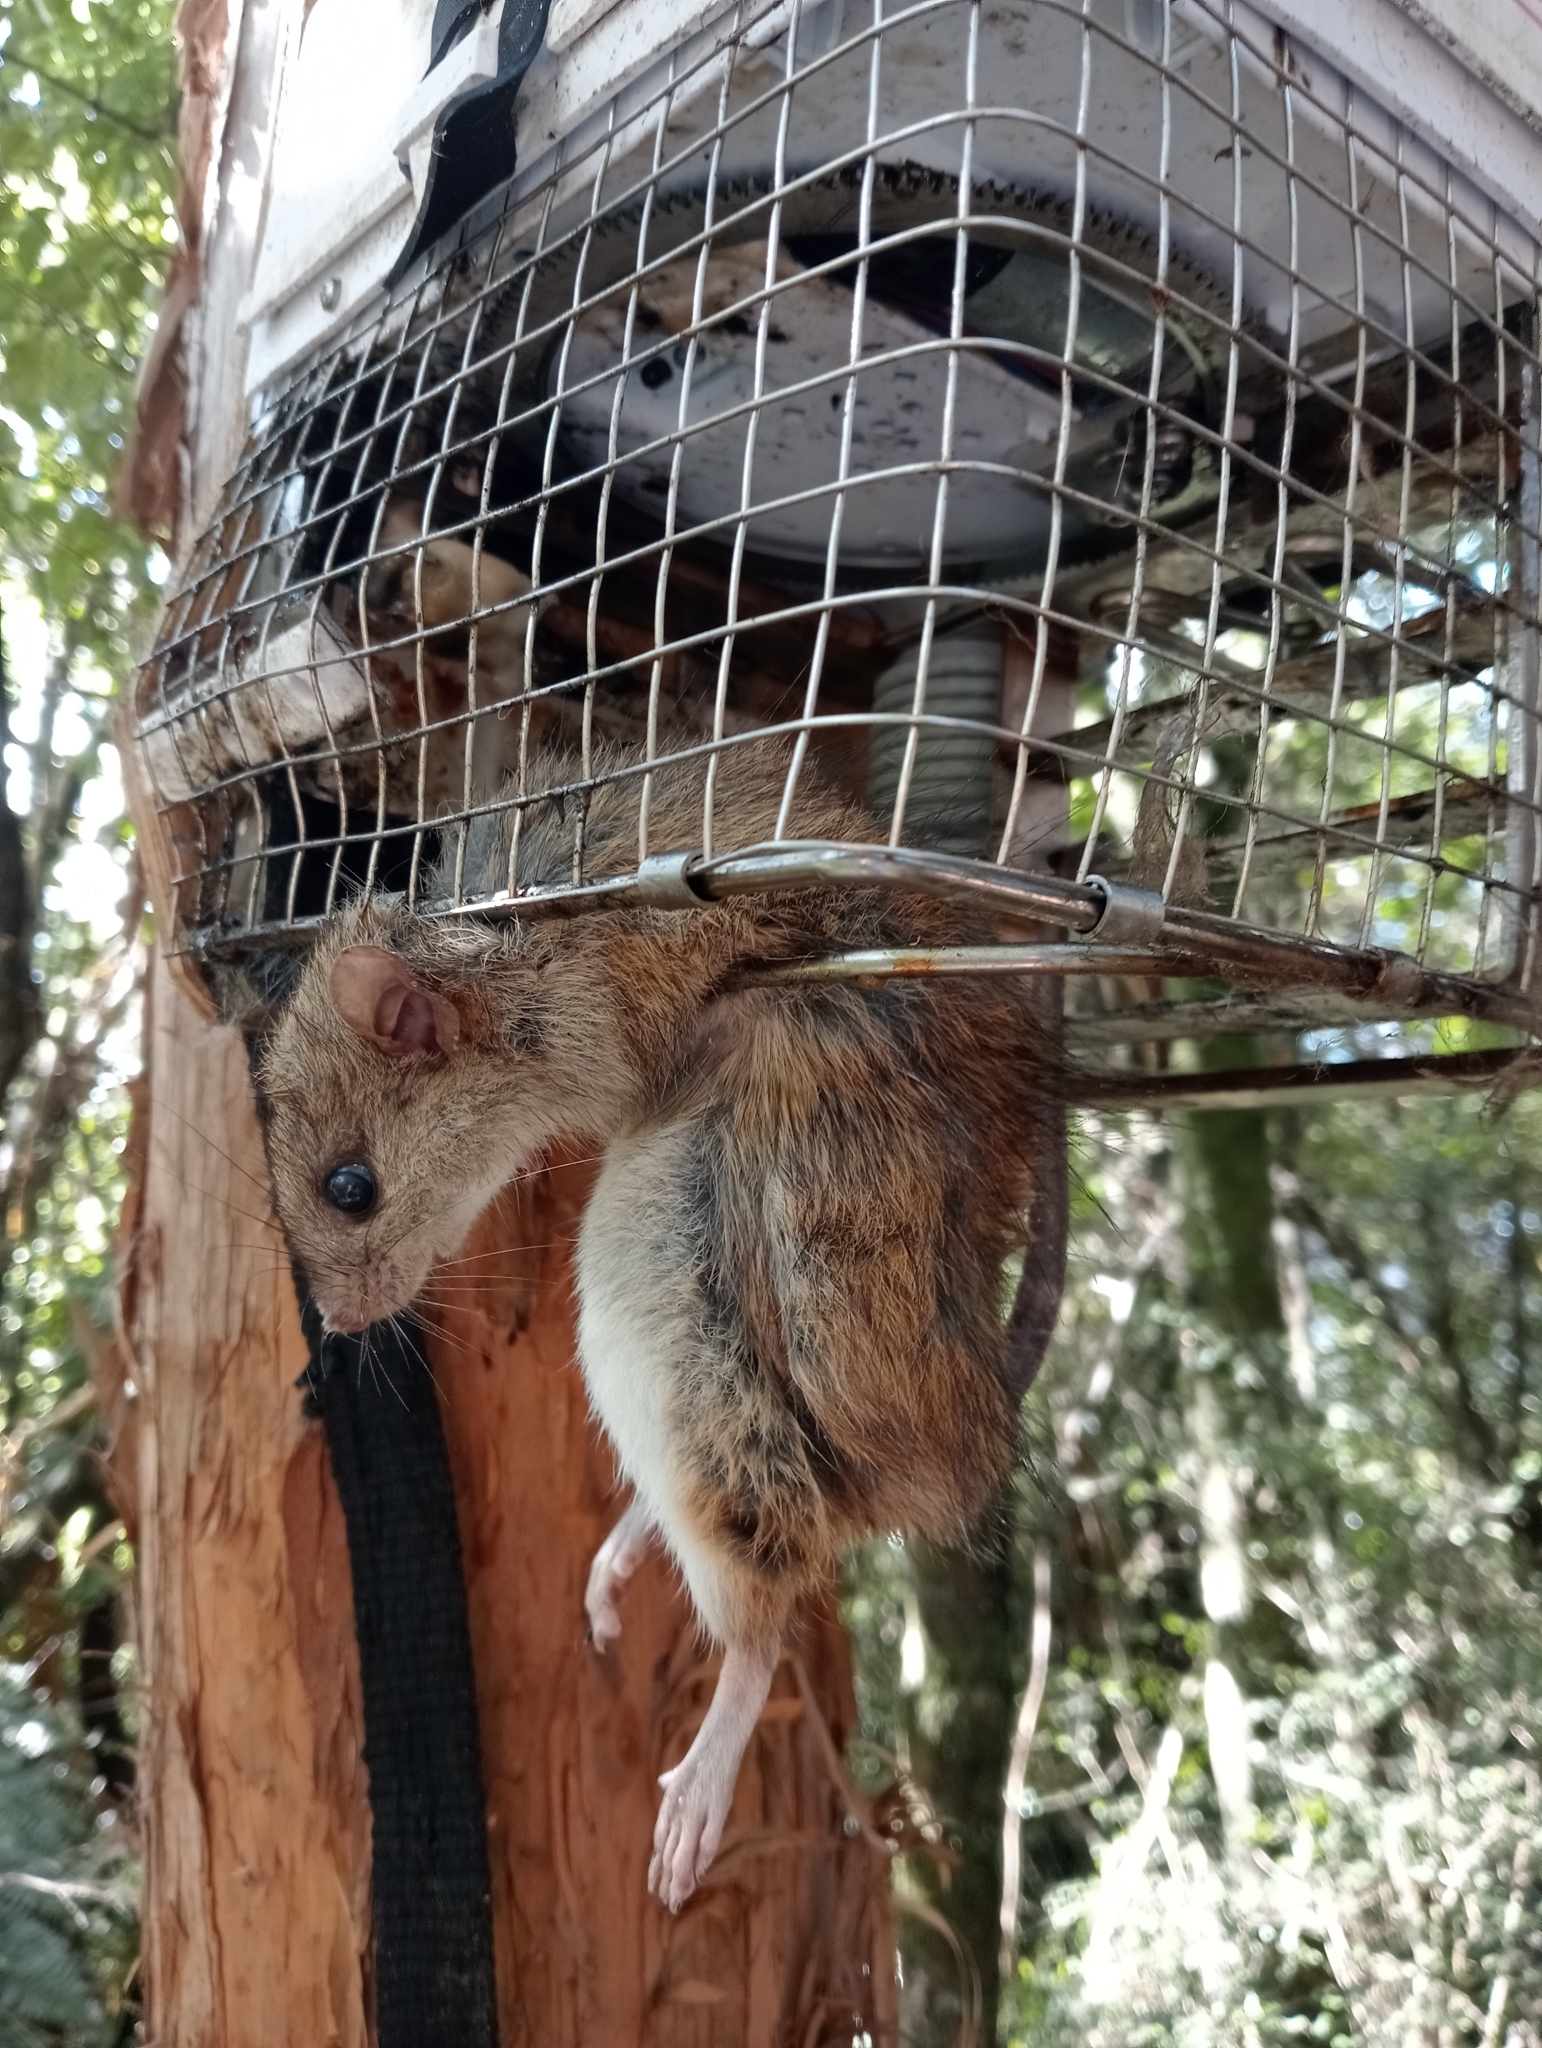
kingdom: Animalia
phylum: Chordata
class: Mammalia
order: Rodentia
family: Muridae
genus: Rattus
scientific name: Rattus rattus
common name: Black rat
